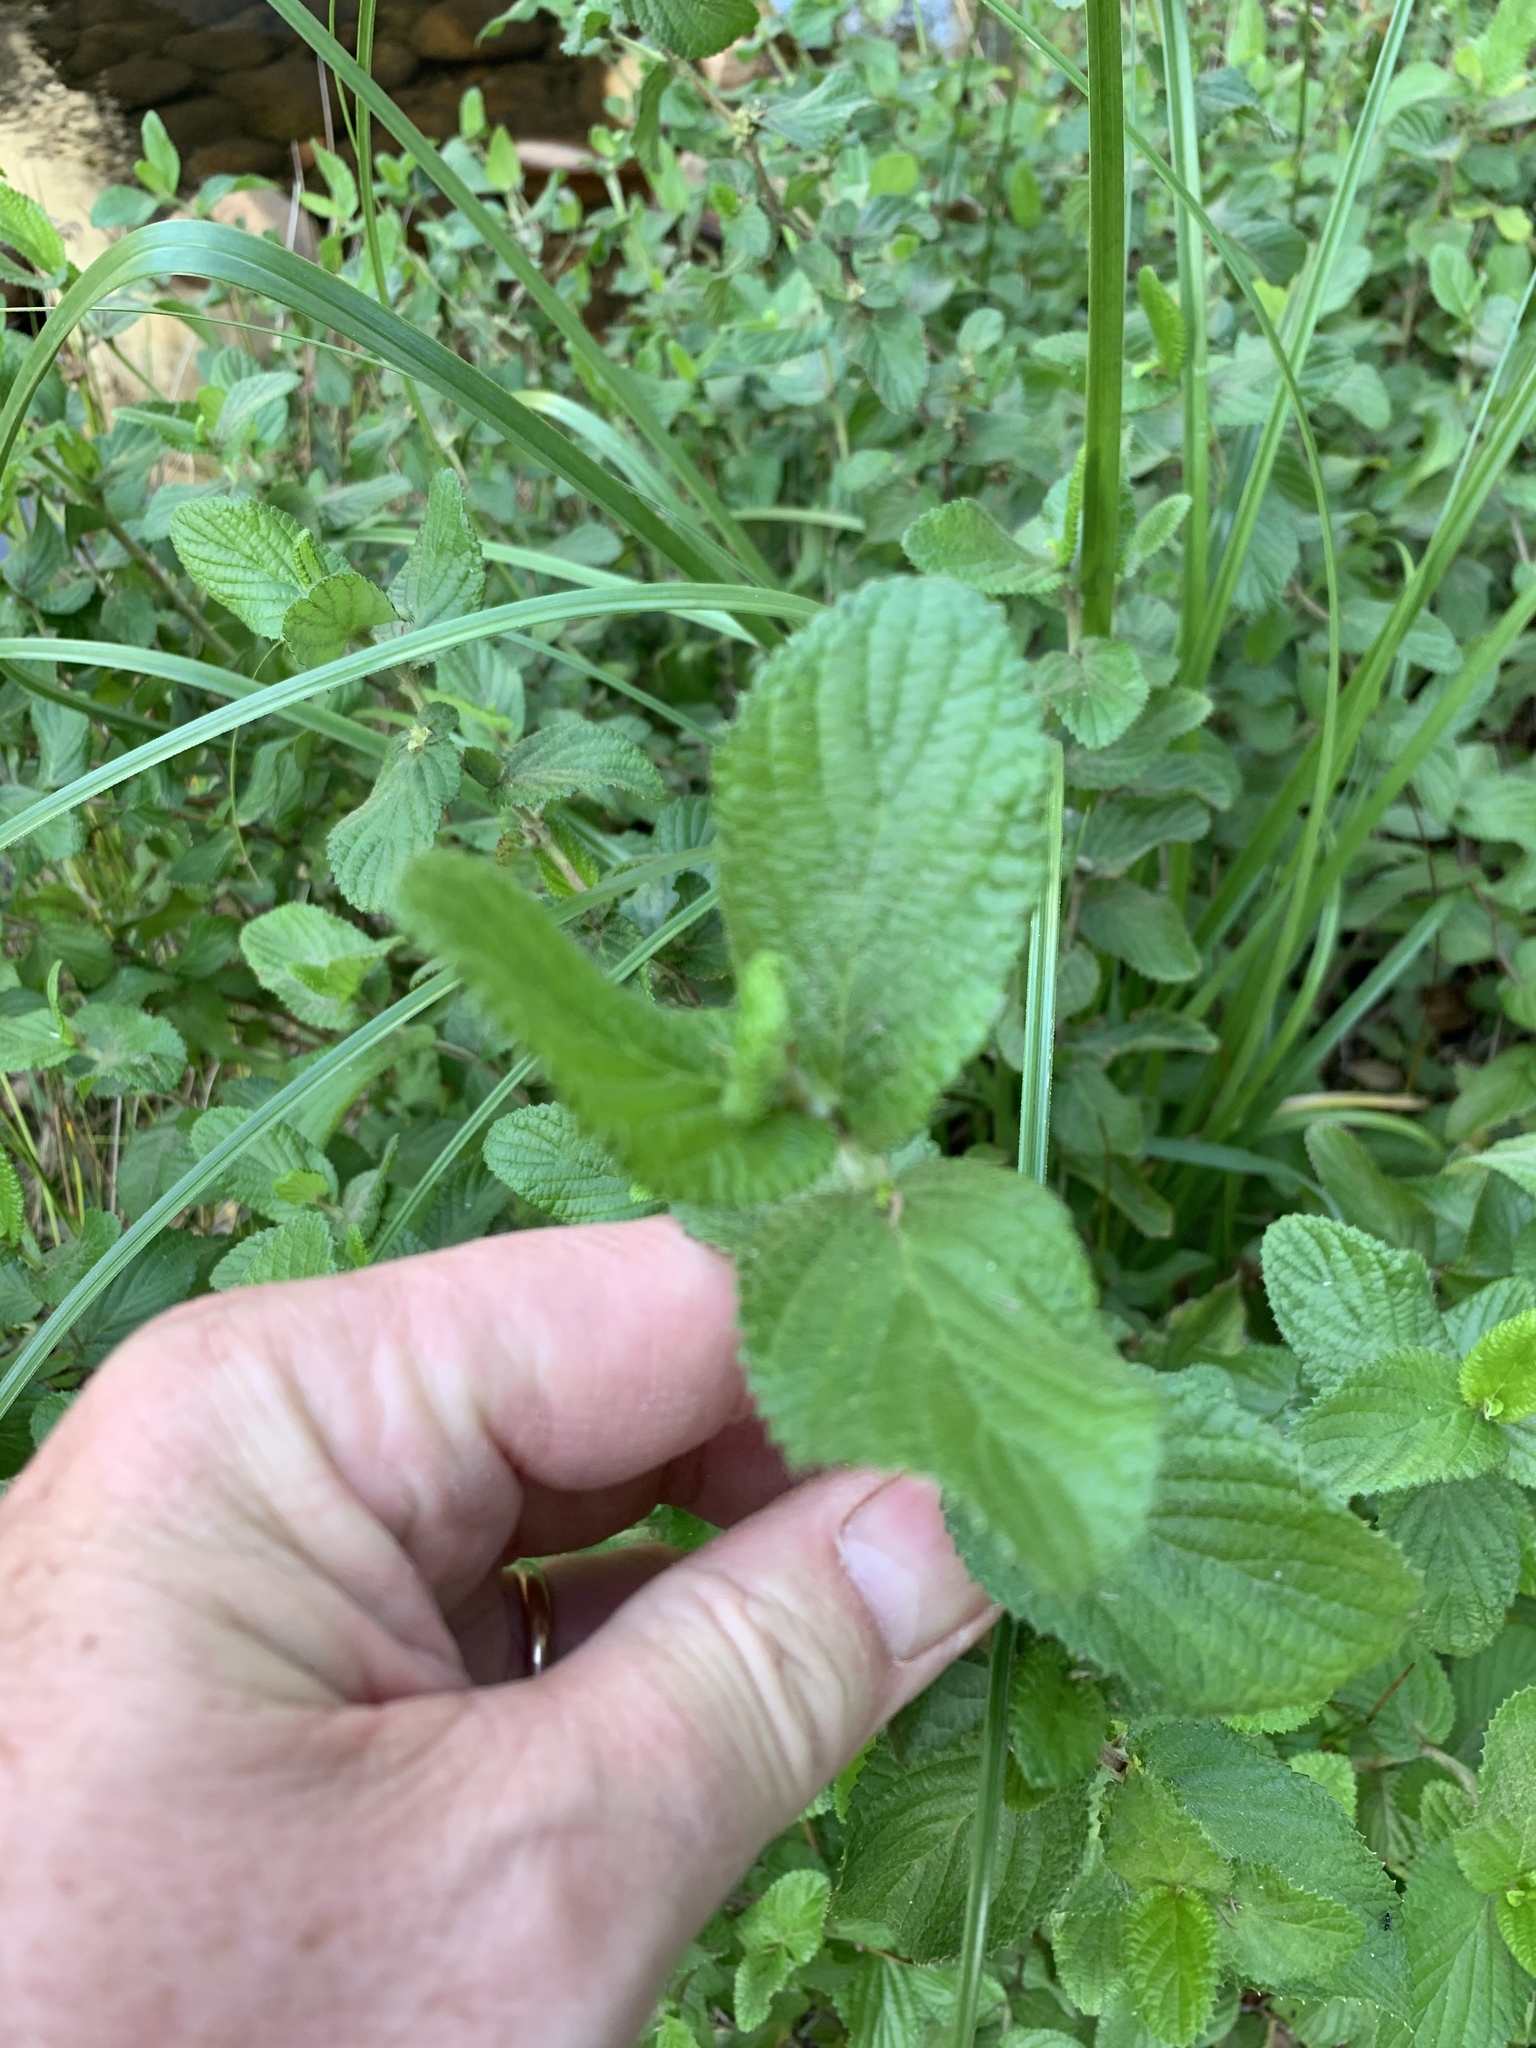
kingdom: Plantae
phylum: Tracheophyta
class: Magnoliopsida
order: Rosales
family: Rosaceae
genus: Cliffortia
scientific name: Cliffortia odorata
